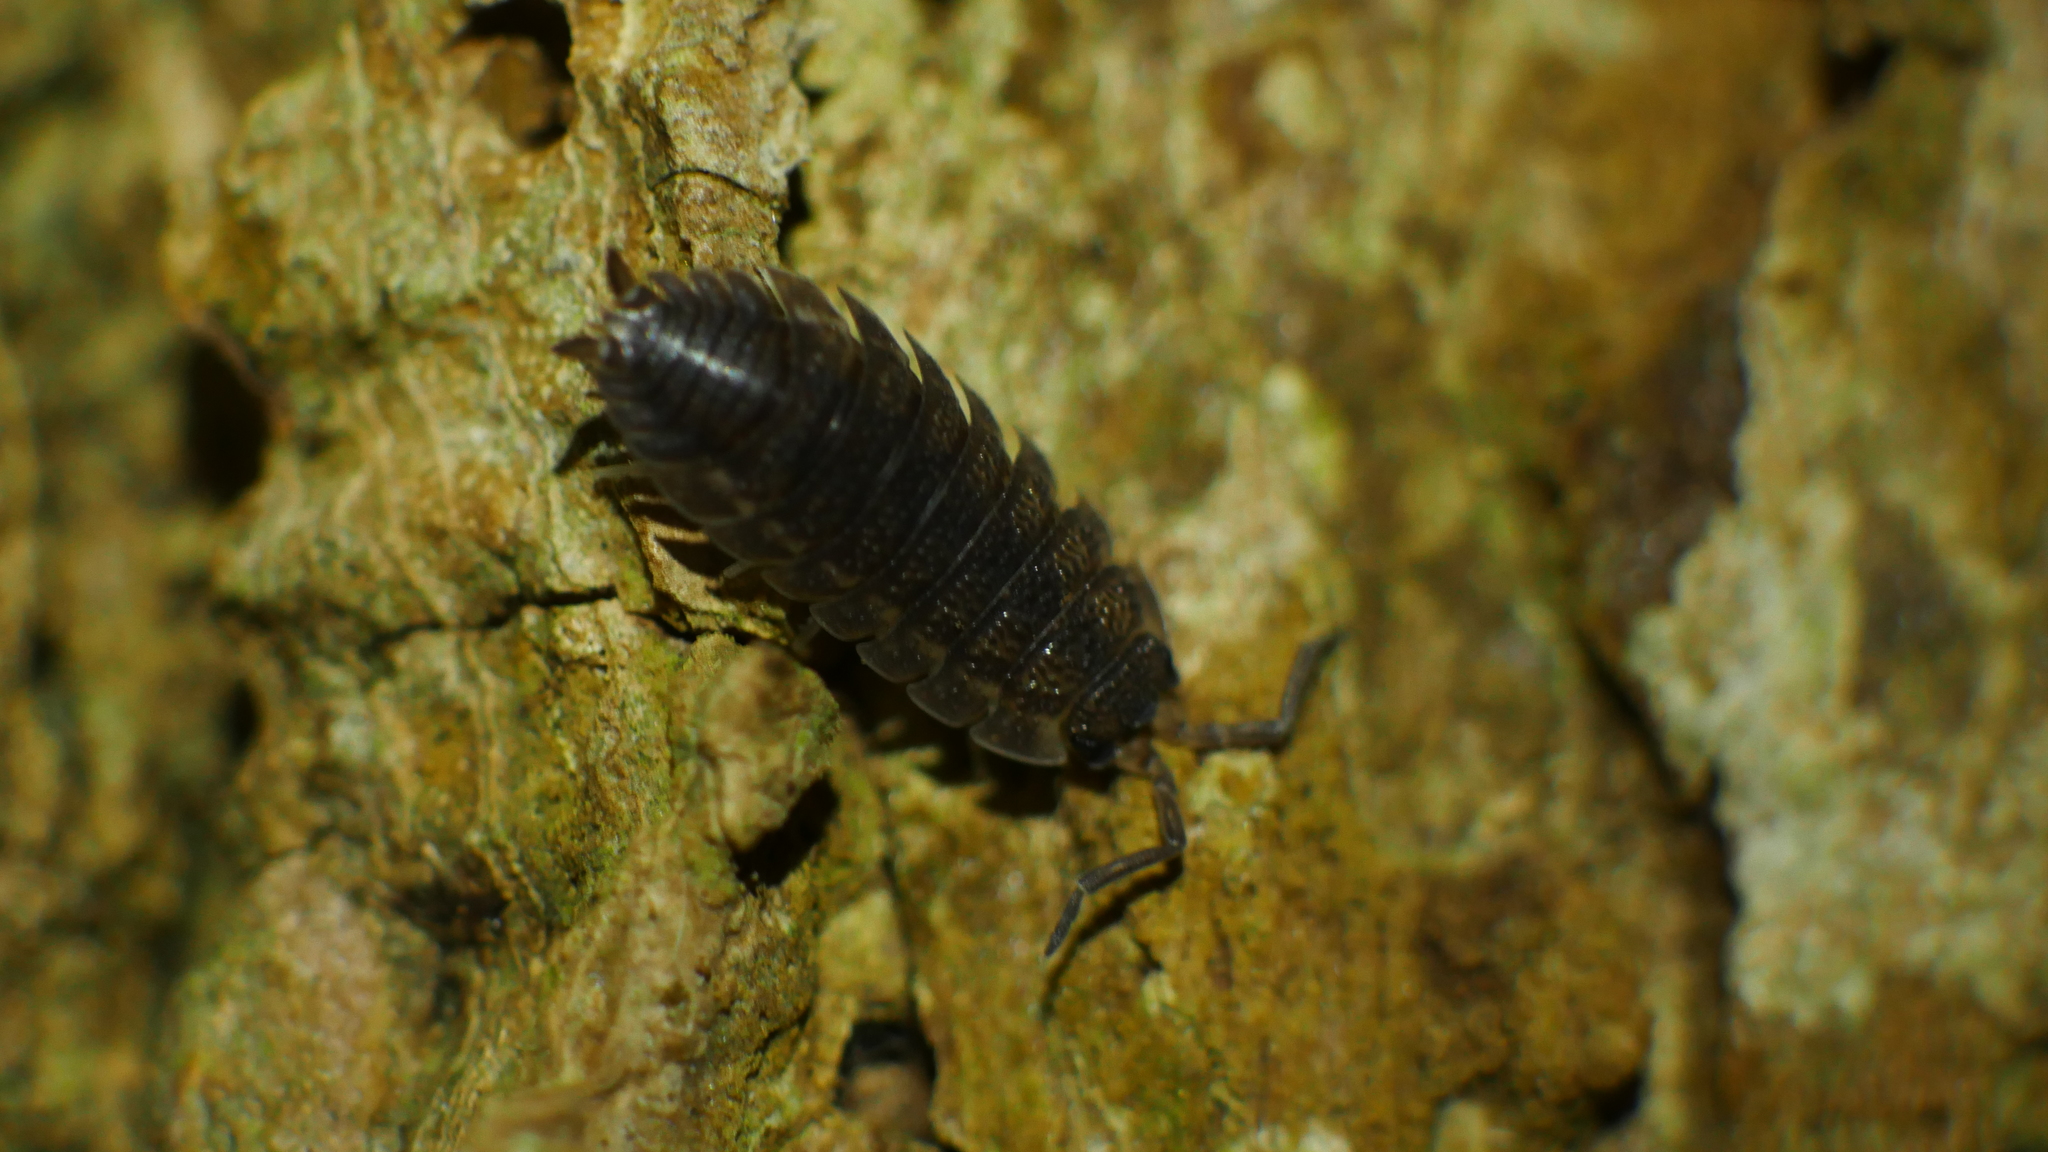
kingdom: Animalia
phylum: Arthropoda
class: Malacostraca
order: Isopoda
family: Porcellionidae
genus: Porcellio
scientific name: Porcellio scaber
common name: Common rough woodlouse
